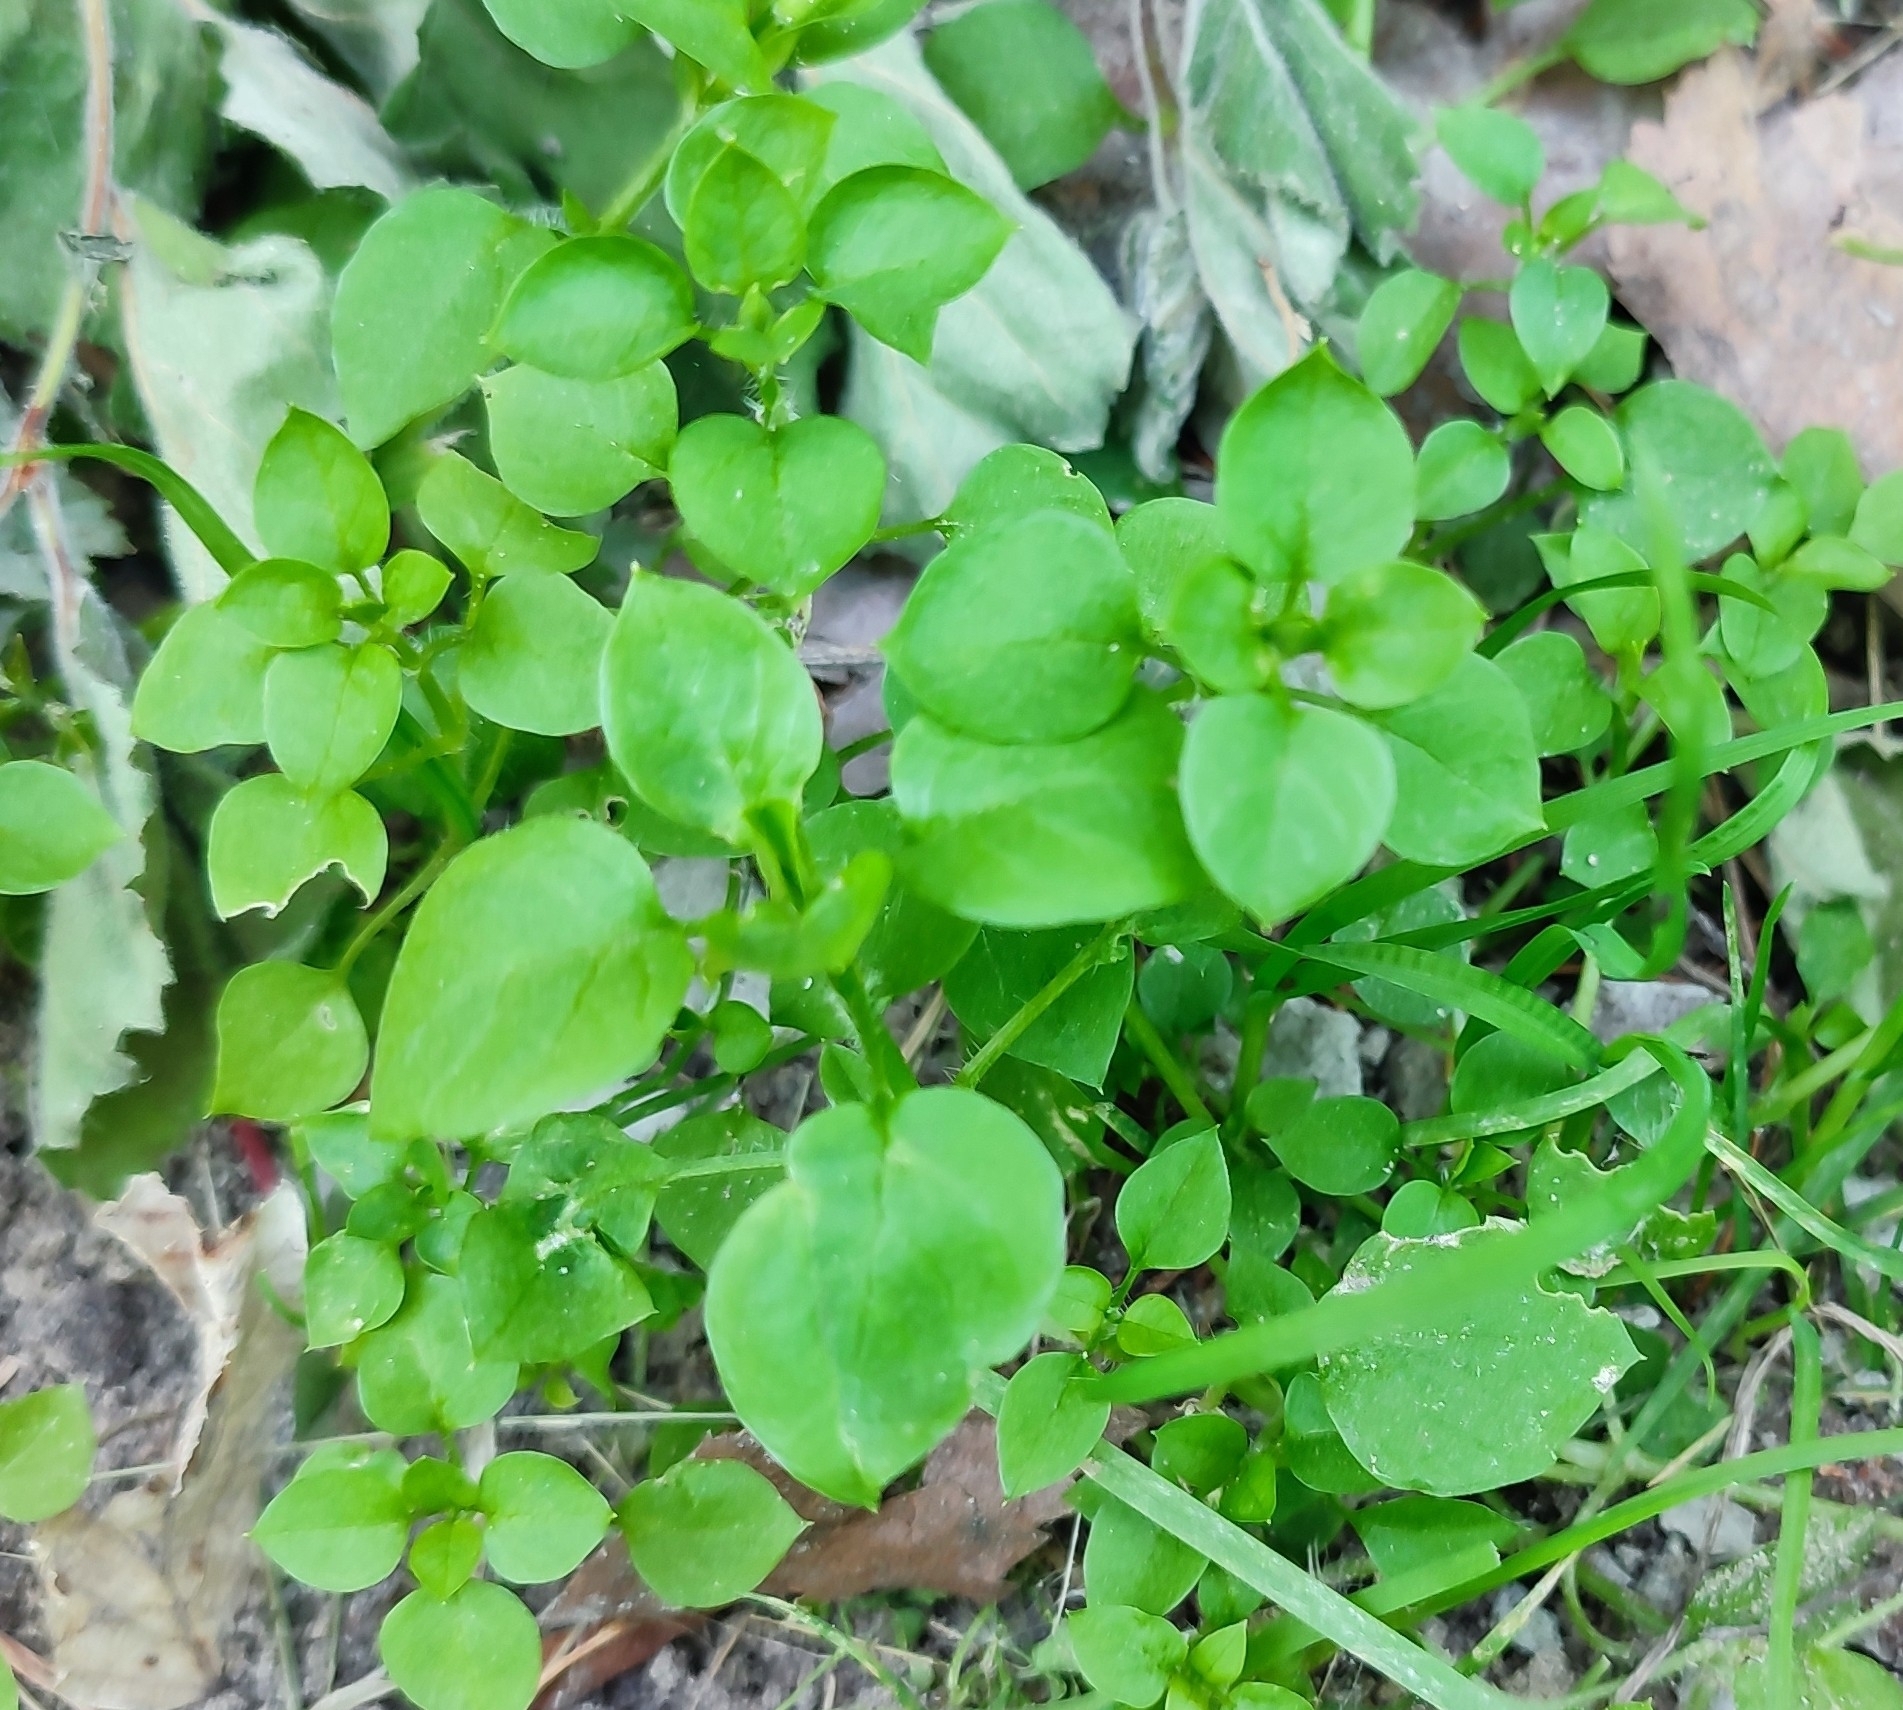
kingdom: Plantae
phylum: Tracheophyta
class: Magnoliopsida
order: Caryophyllales
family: Caryophyllaceae
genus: Stellaria
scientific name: Stellaria media
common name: Common chickweed
